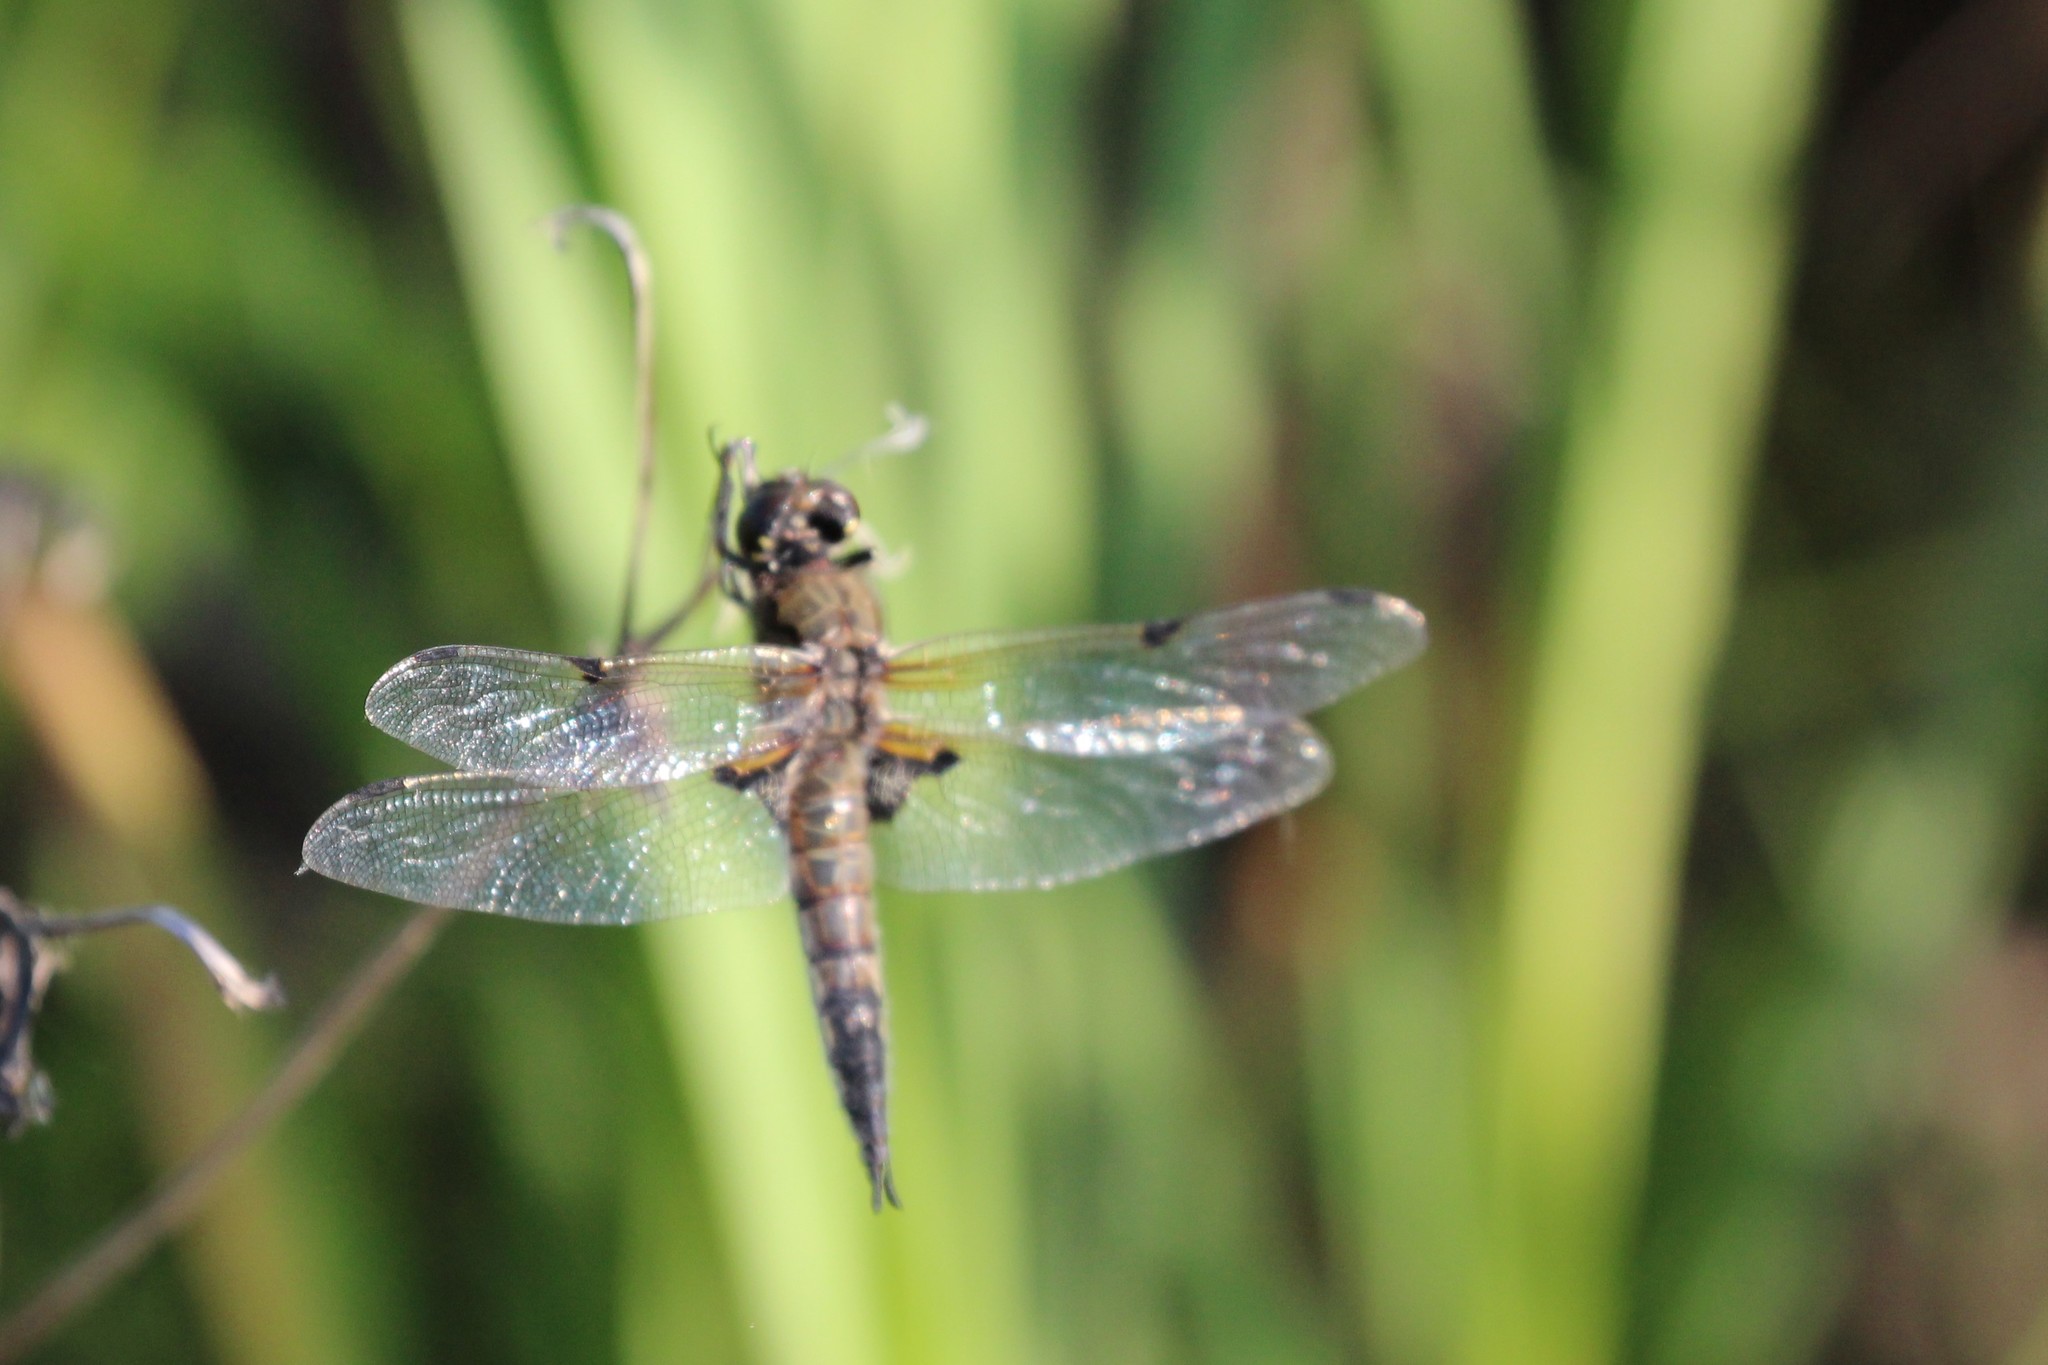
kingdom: Animalia
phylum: Arthropoda
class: Insecta
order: Odonata
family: Libellulidae
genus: Libellula
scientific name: Libellula quadrimaculata
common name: Four-spotted chaser
